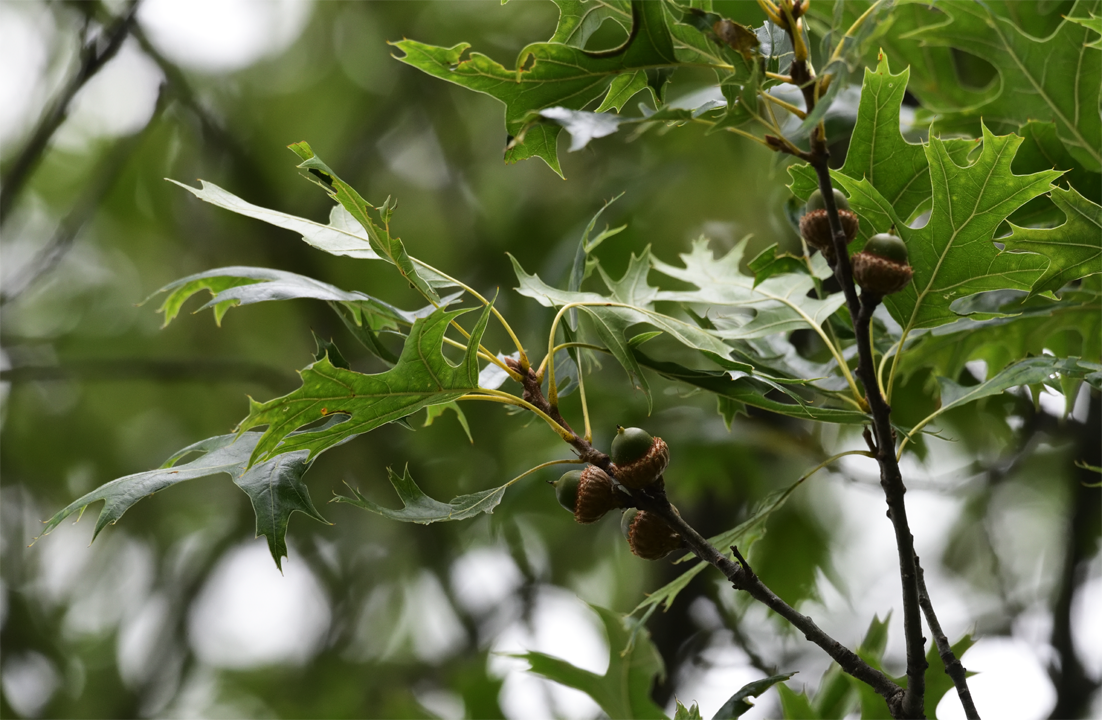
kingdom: Plantae
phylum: Tracheophyta
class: Magnoliopsida
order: Fagales
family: Fagaceae
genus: Quercus
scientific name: Quercus velutina
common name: Black oak
